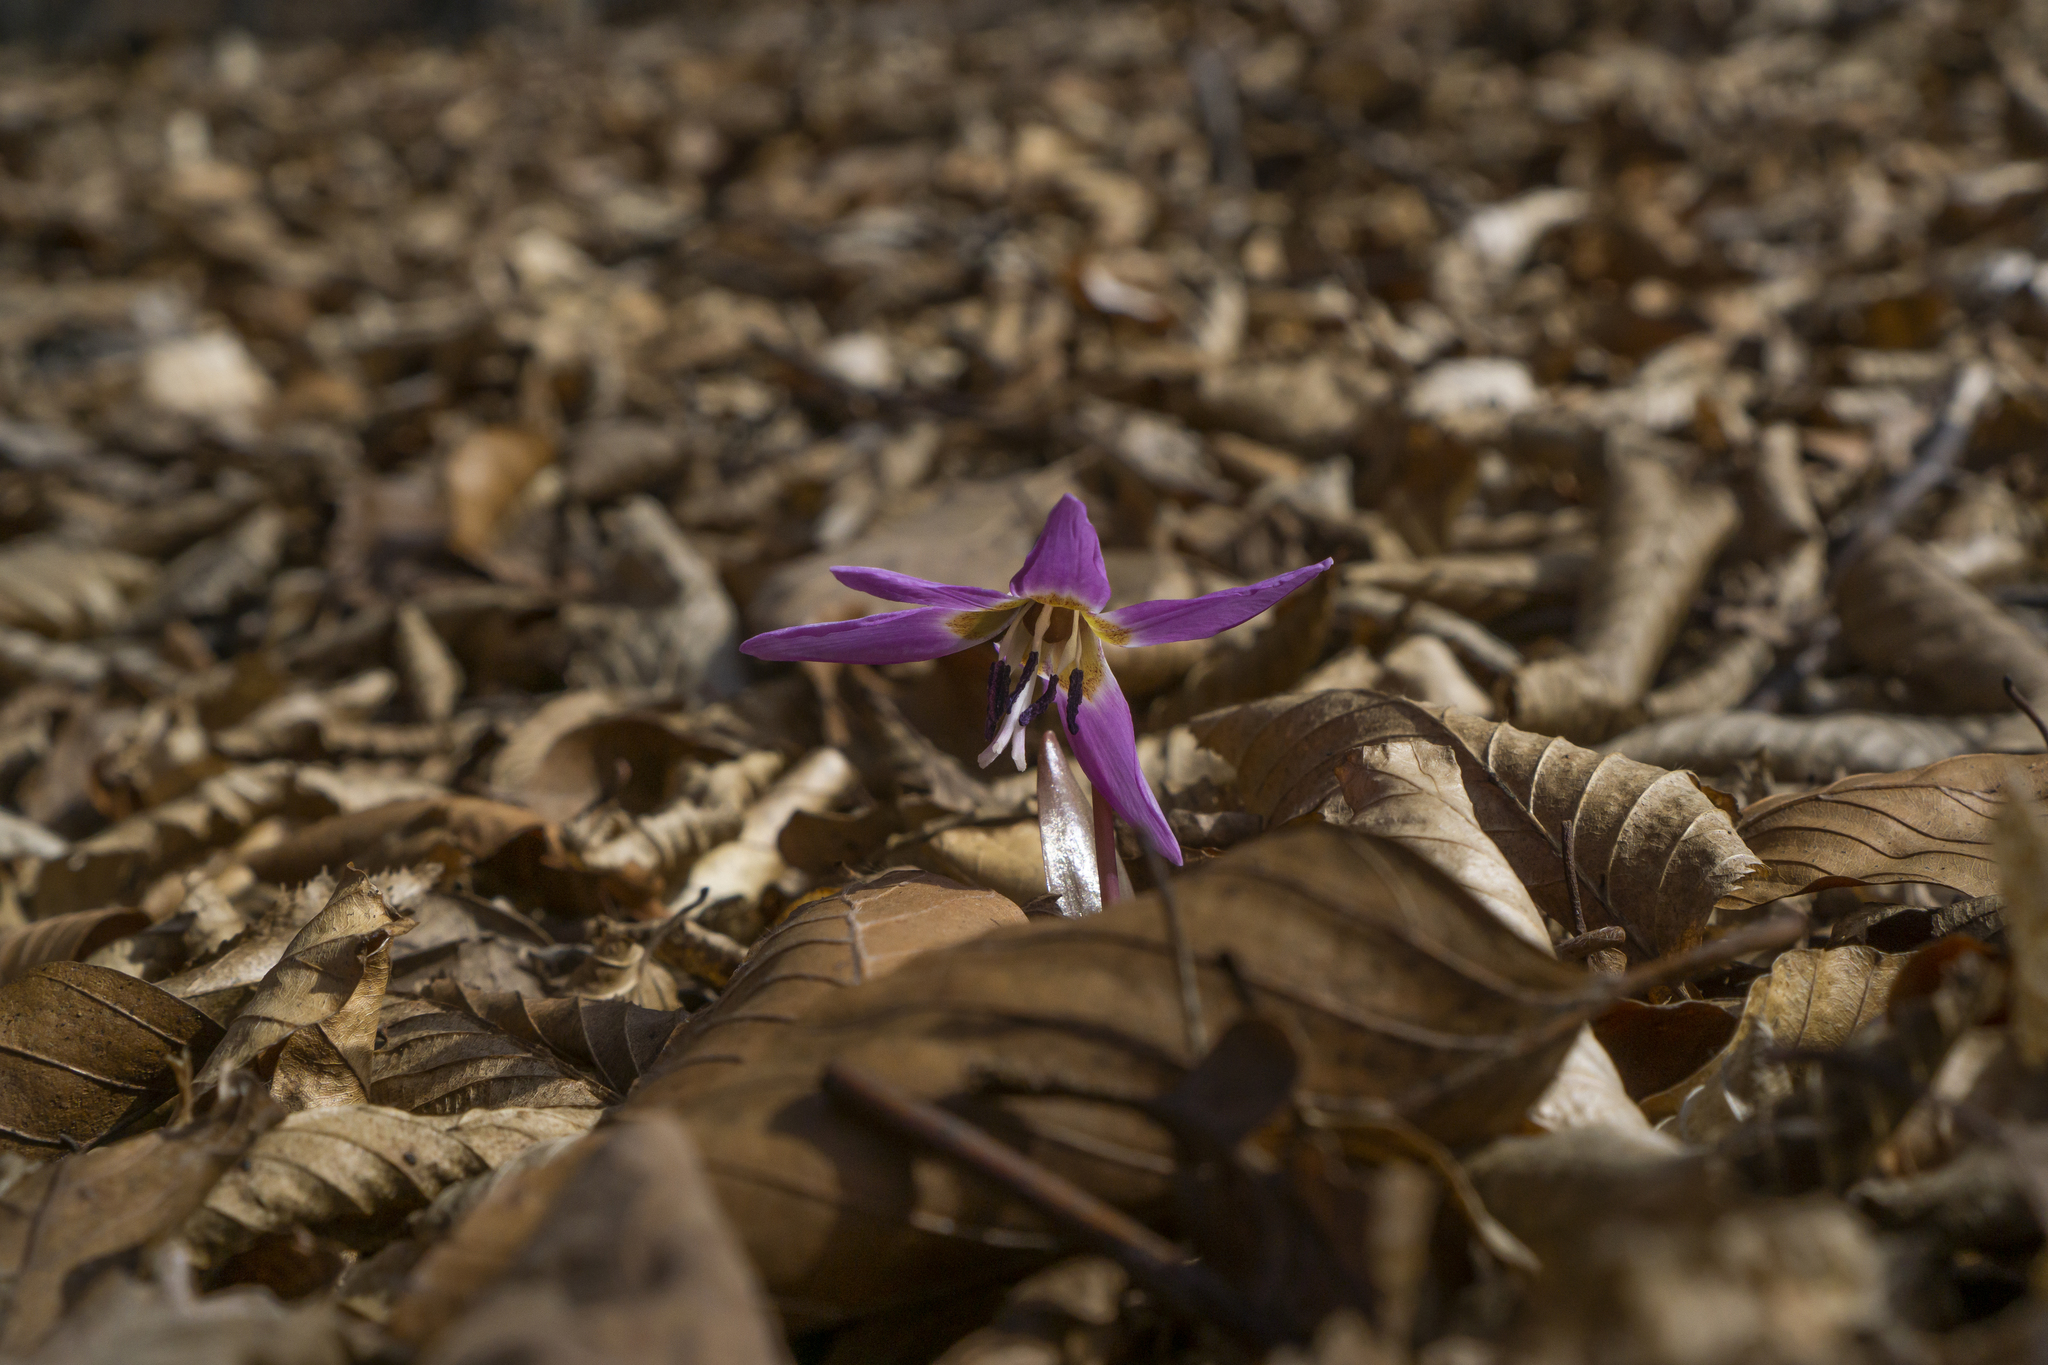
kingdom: Plantae
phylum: Tracheophyta
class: Liliopsida
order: Liliales
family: Liliaceae
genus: Erythronium
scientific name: Erythronium dens-canis
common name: Dog's-tooth-violet
